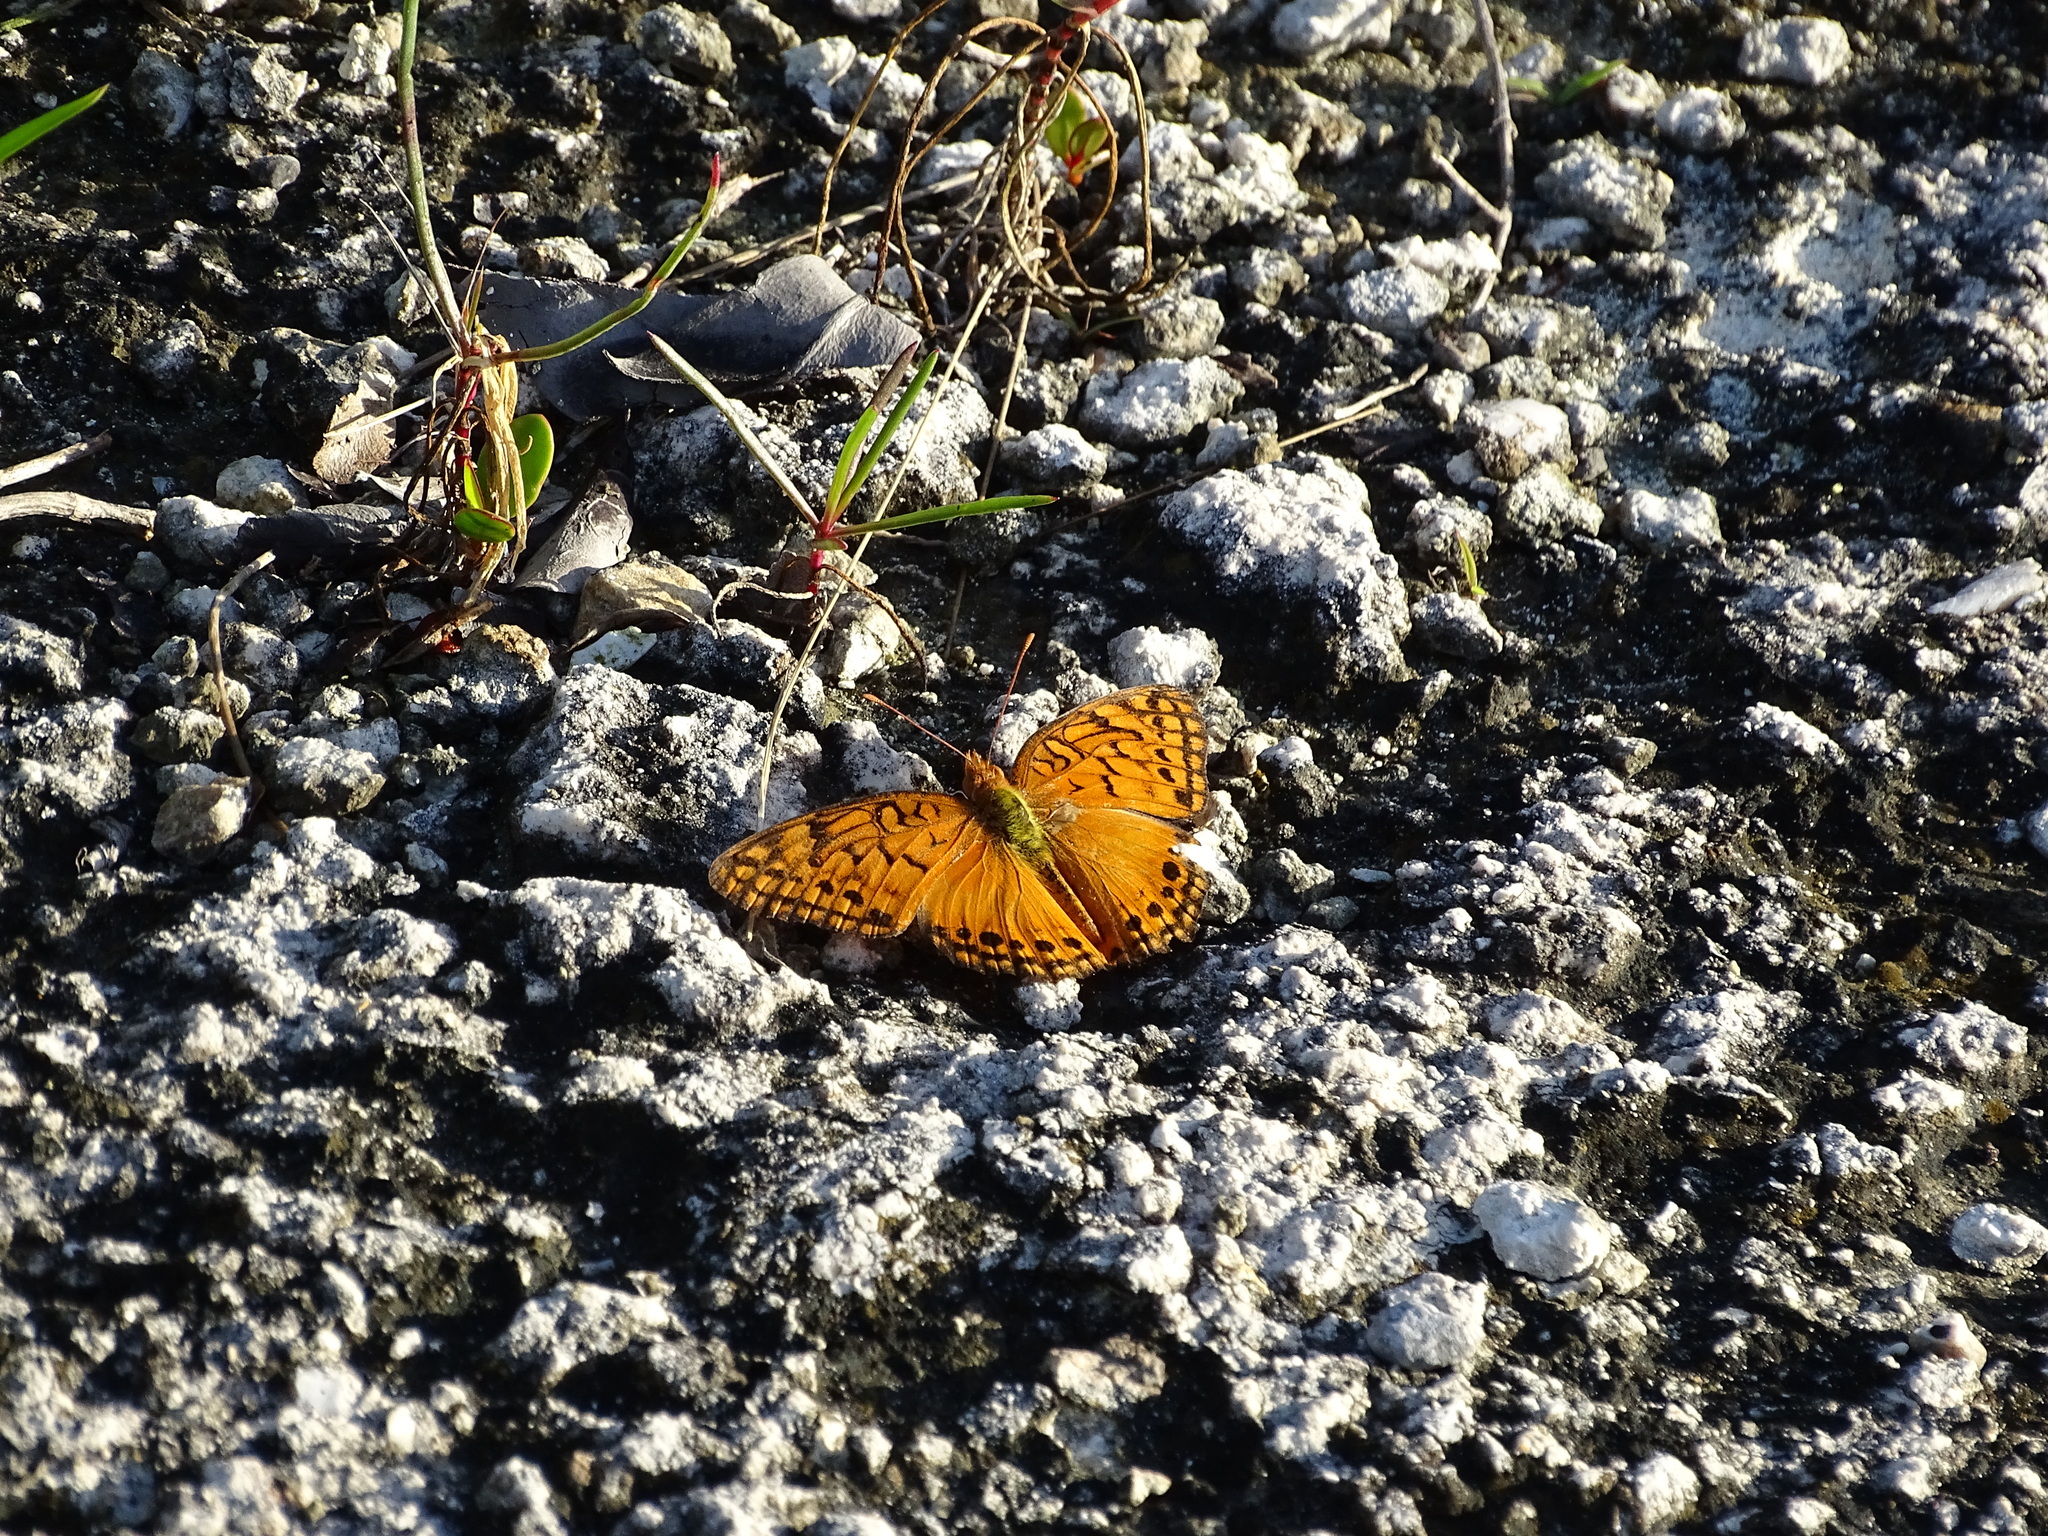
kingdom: Animalia
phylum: Arthropoda
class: Insecta
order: Lepidoptera
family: Nymphalidae
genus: Euptoieta
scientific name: Euptoieta hegesia
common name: Mexican fritillary
